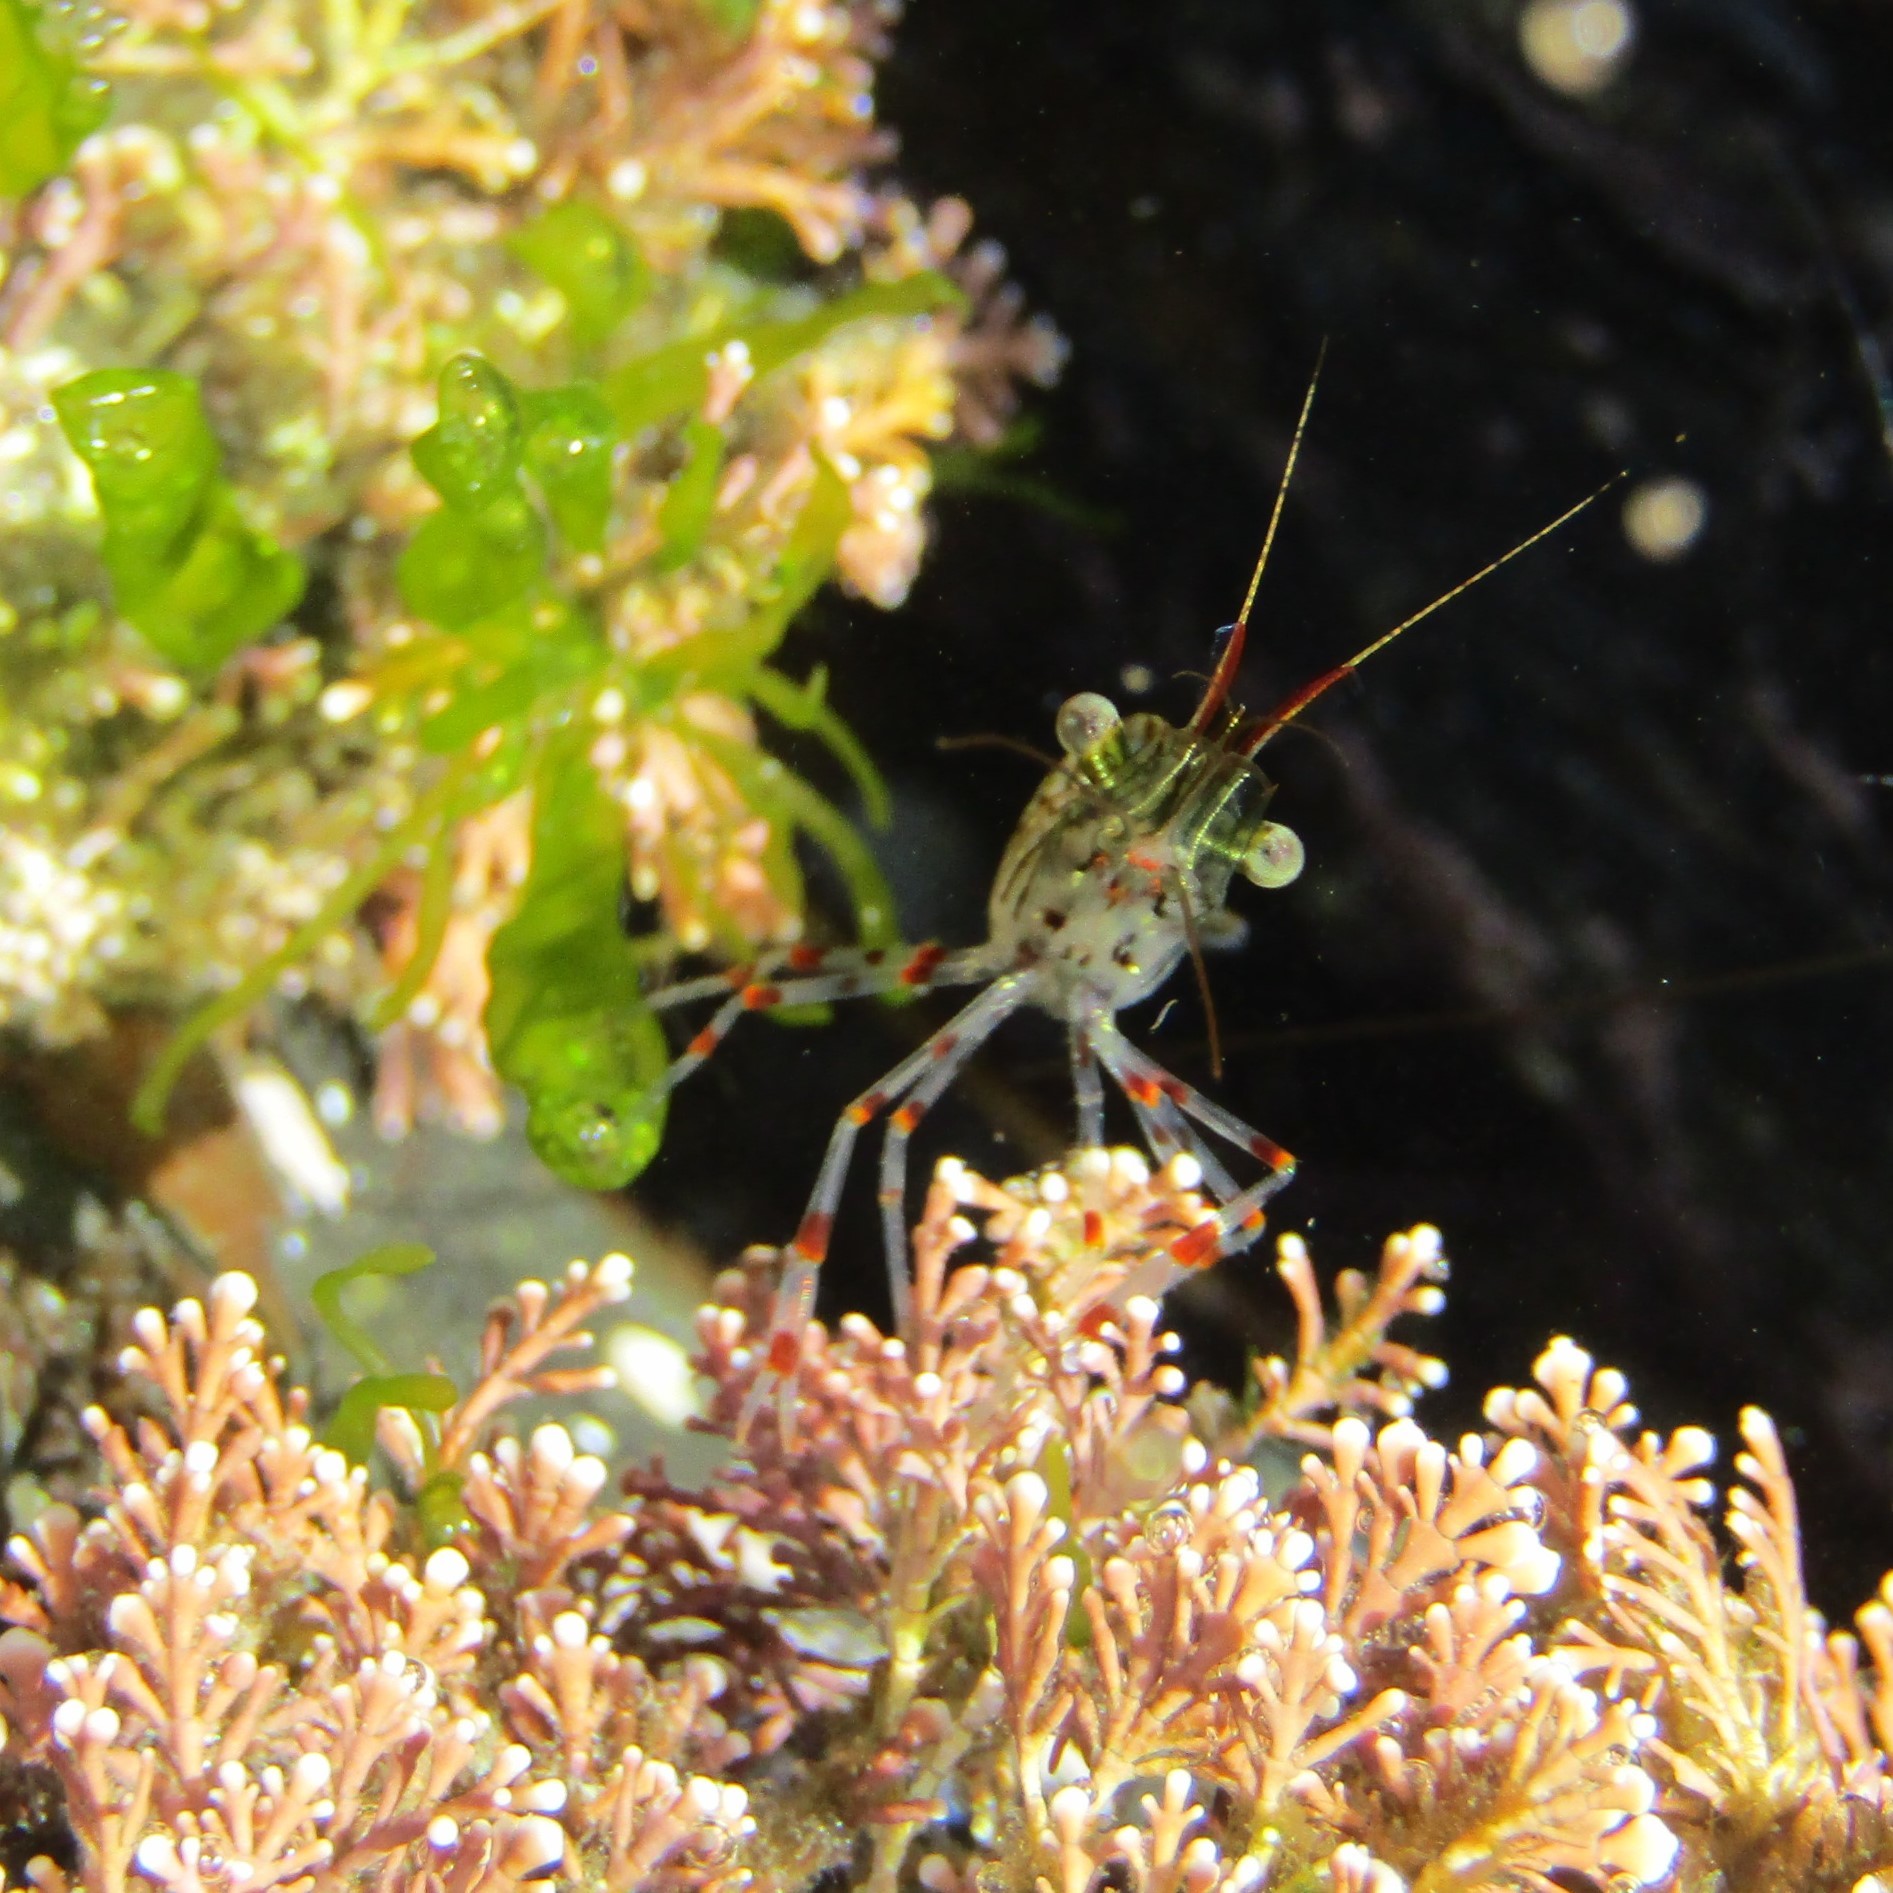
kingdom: Animalia
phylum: Arthropoda
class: Malacostraca
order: Decapoda
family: Palaemonidae
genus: Palaemon
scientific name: Palaemon affinis
